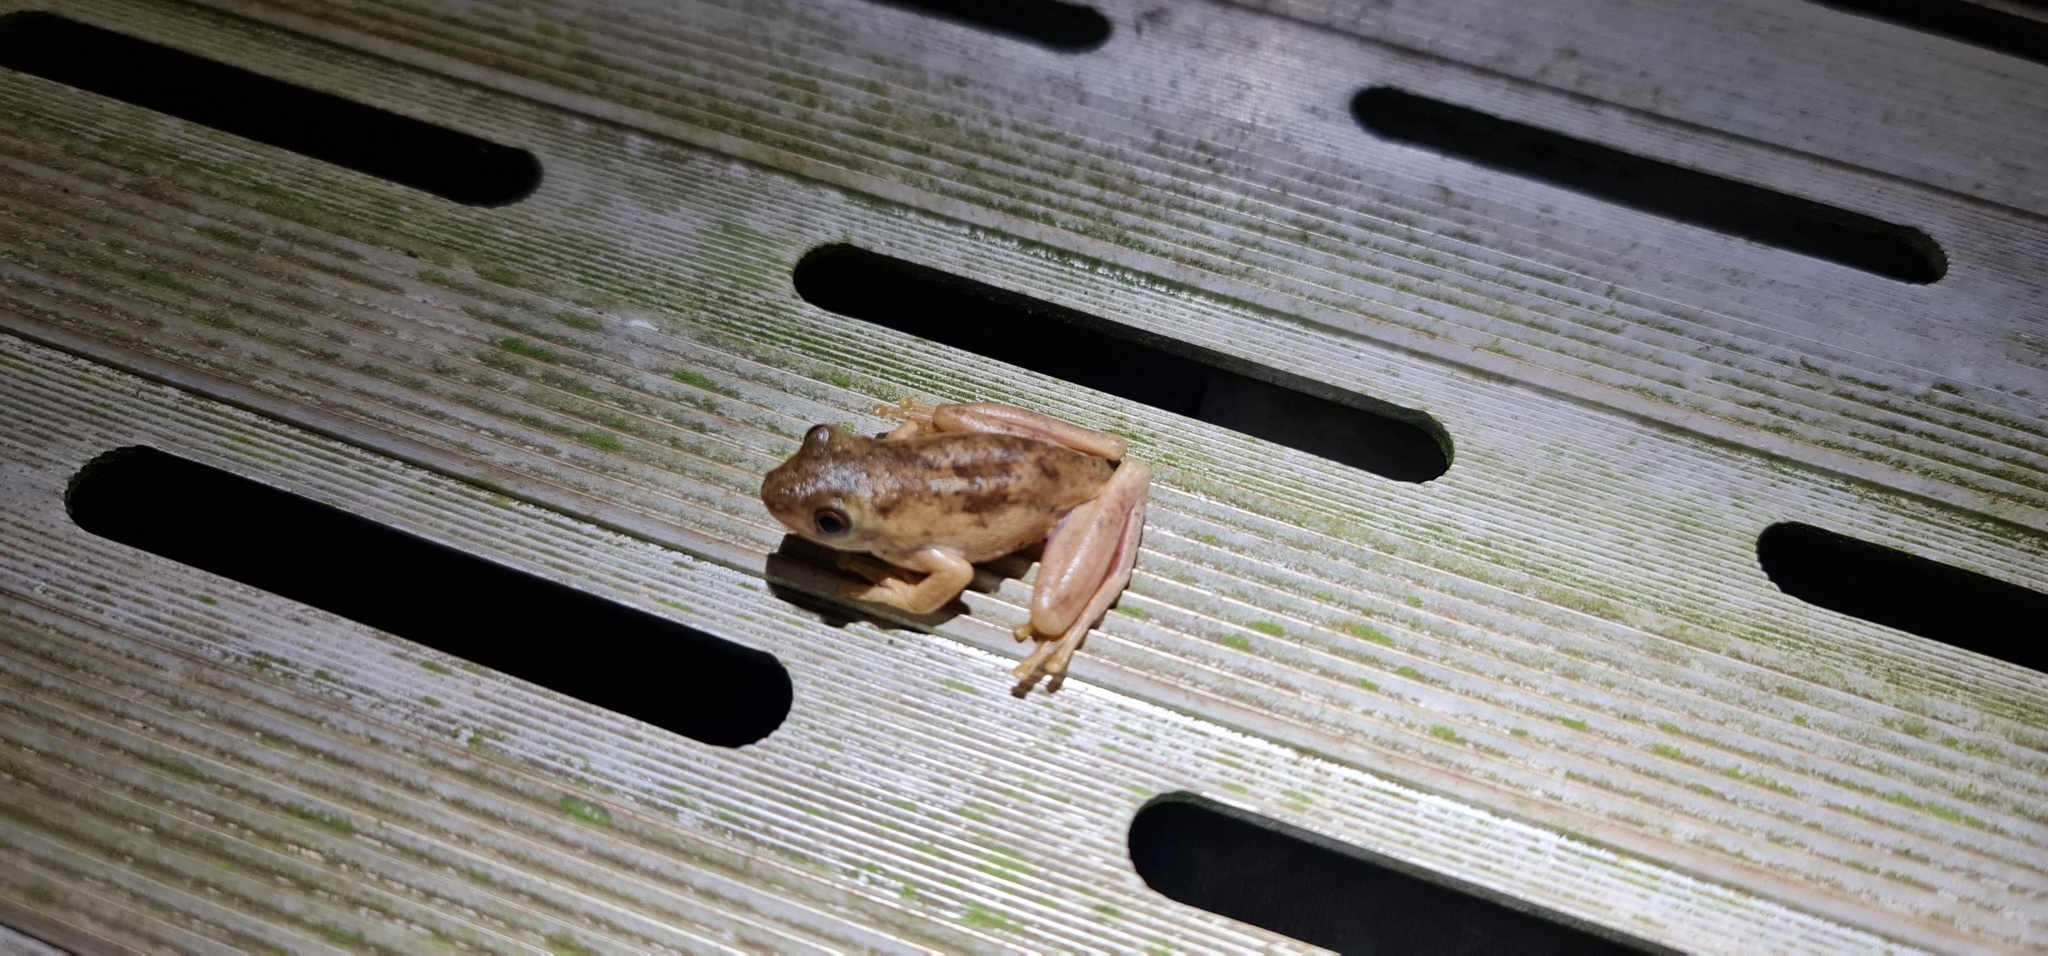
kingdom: Animalia
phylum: Chordata
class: Amphibia
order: Anura
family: Pelodryadidae
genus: Litoria
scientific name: Litoria
